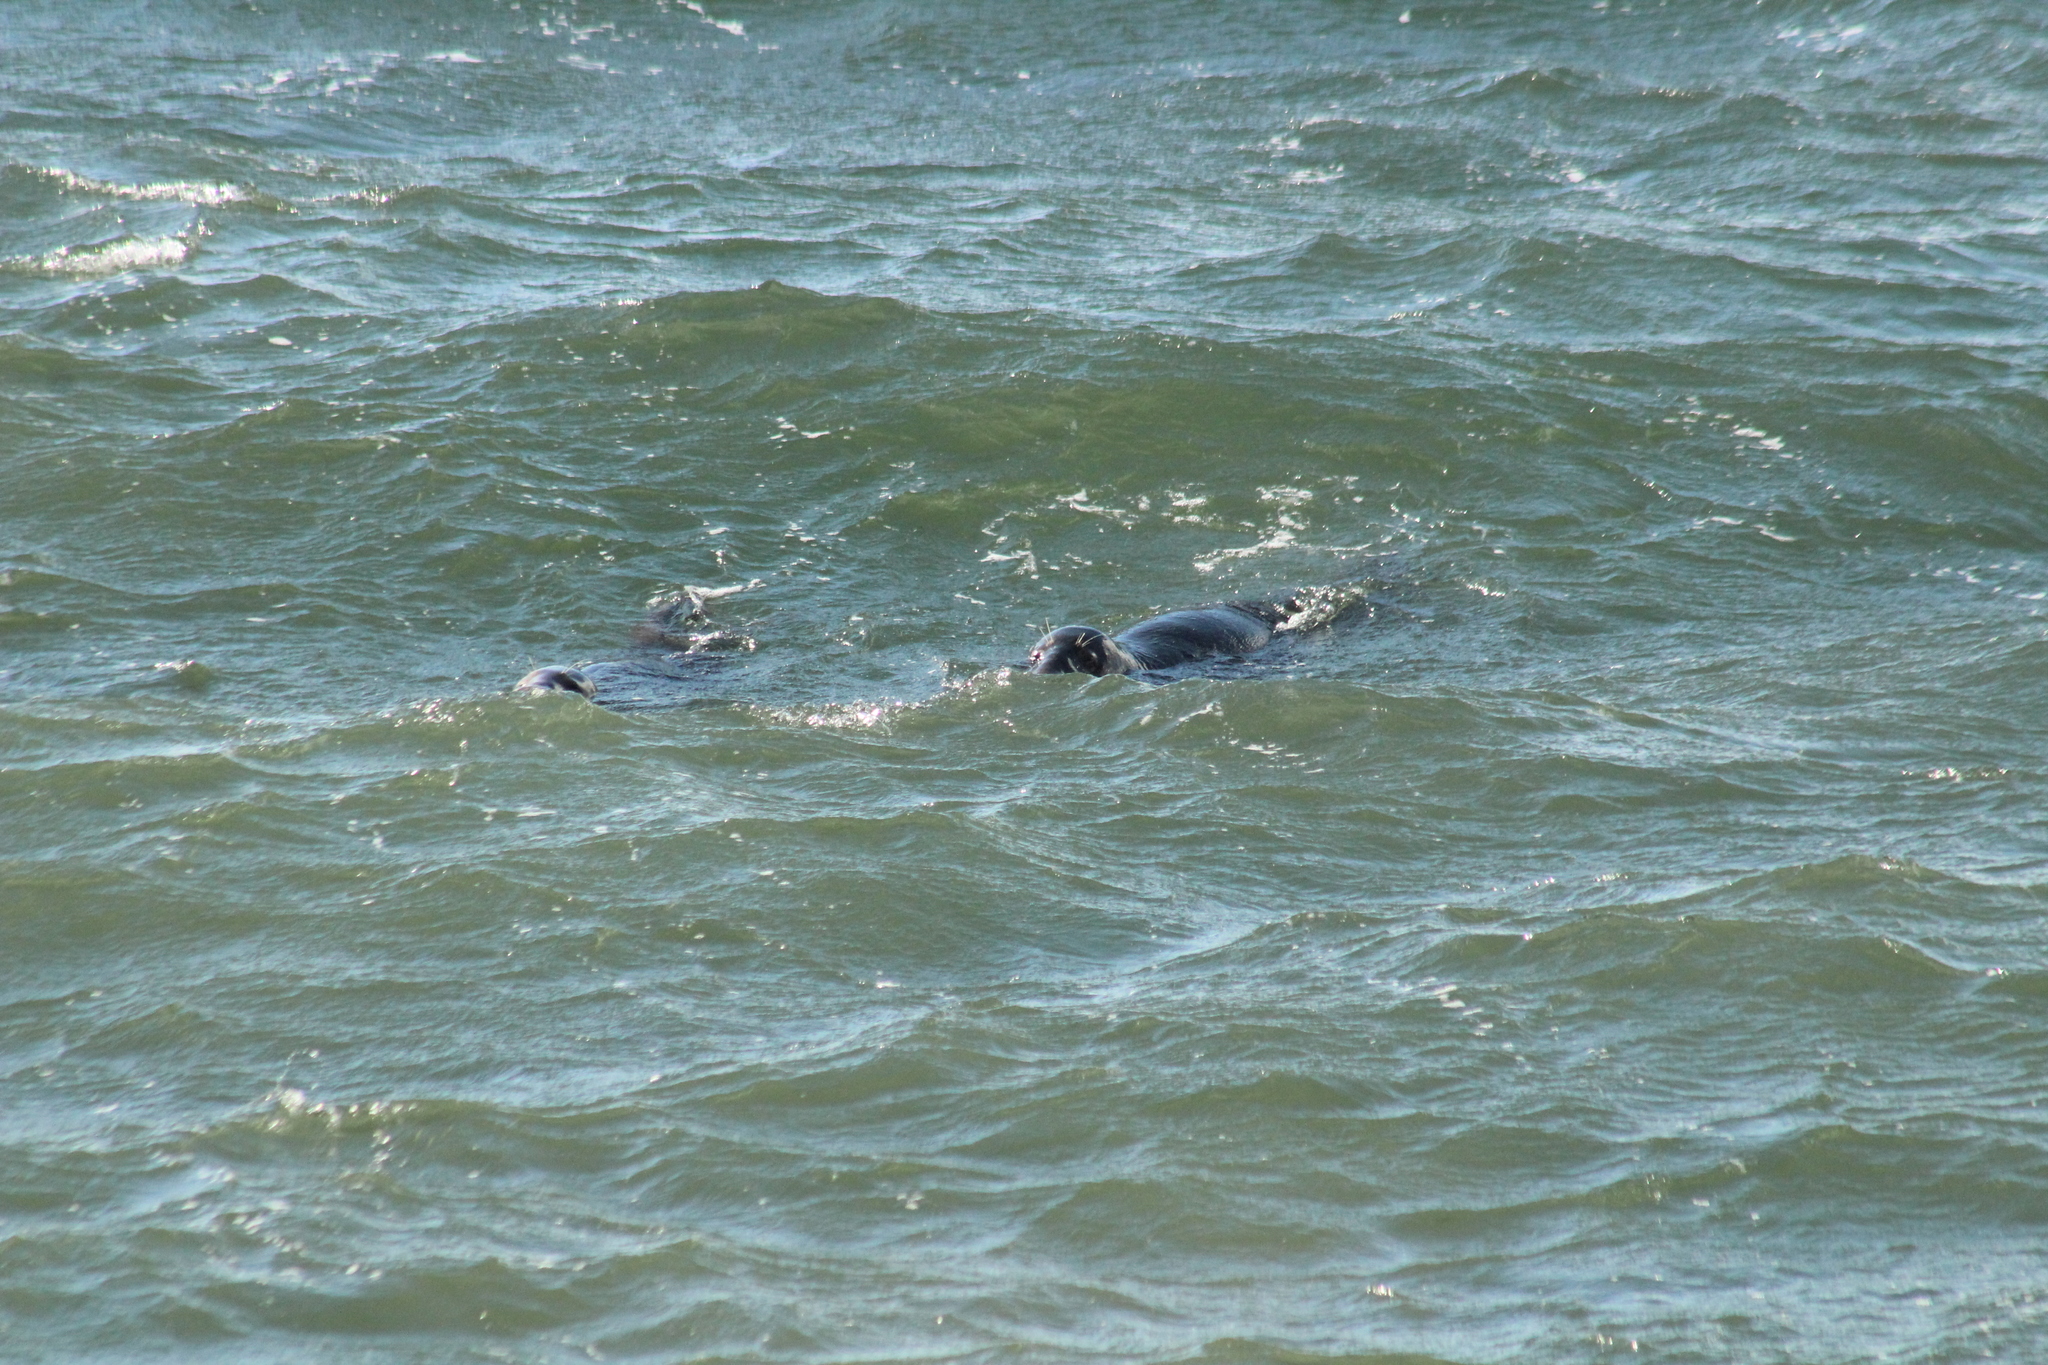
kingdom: Animalia
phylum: Chordata
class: Mammalia
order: Carnivora
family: Phocidae
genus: Halichoerus
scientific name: Halichoerus grypus
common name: Grey seal
